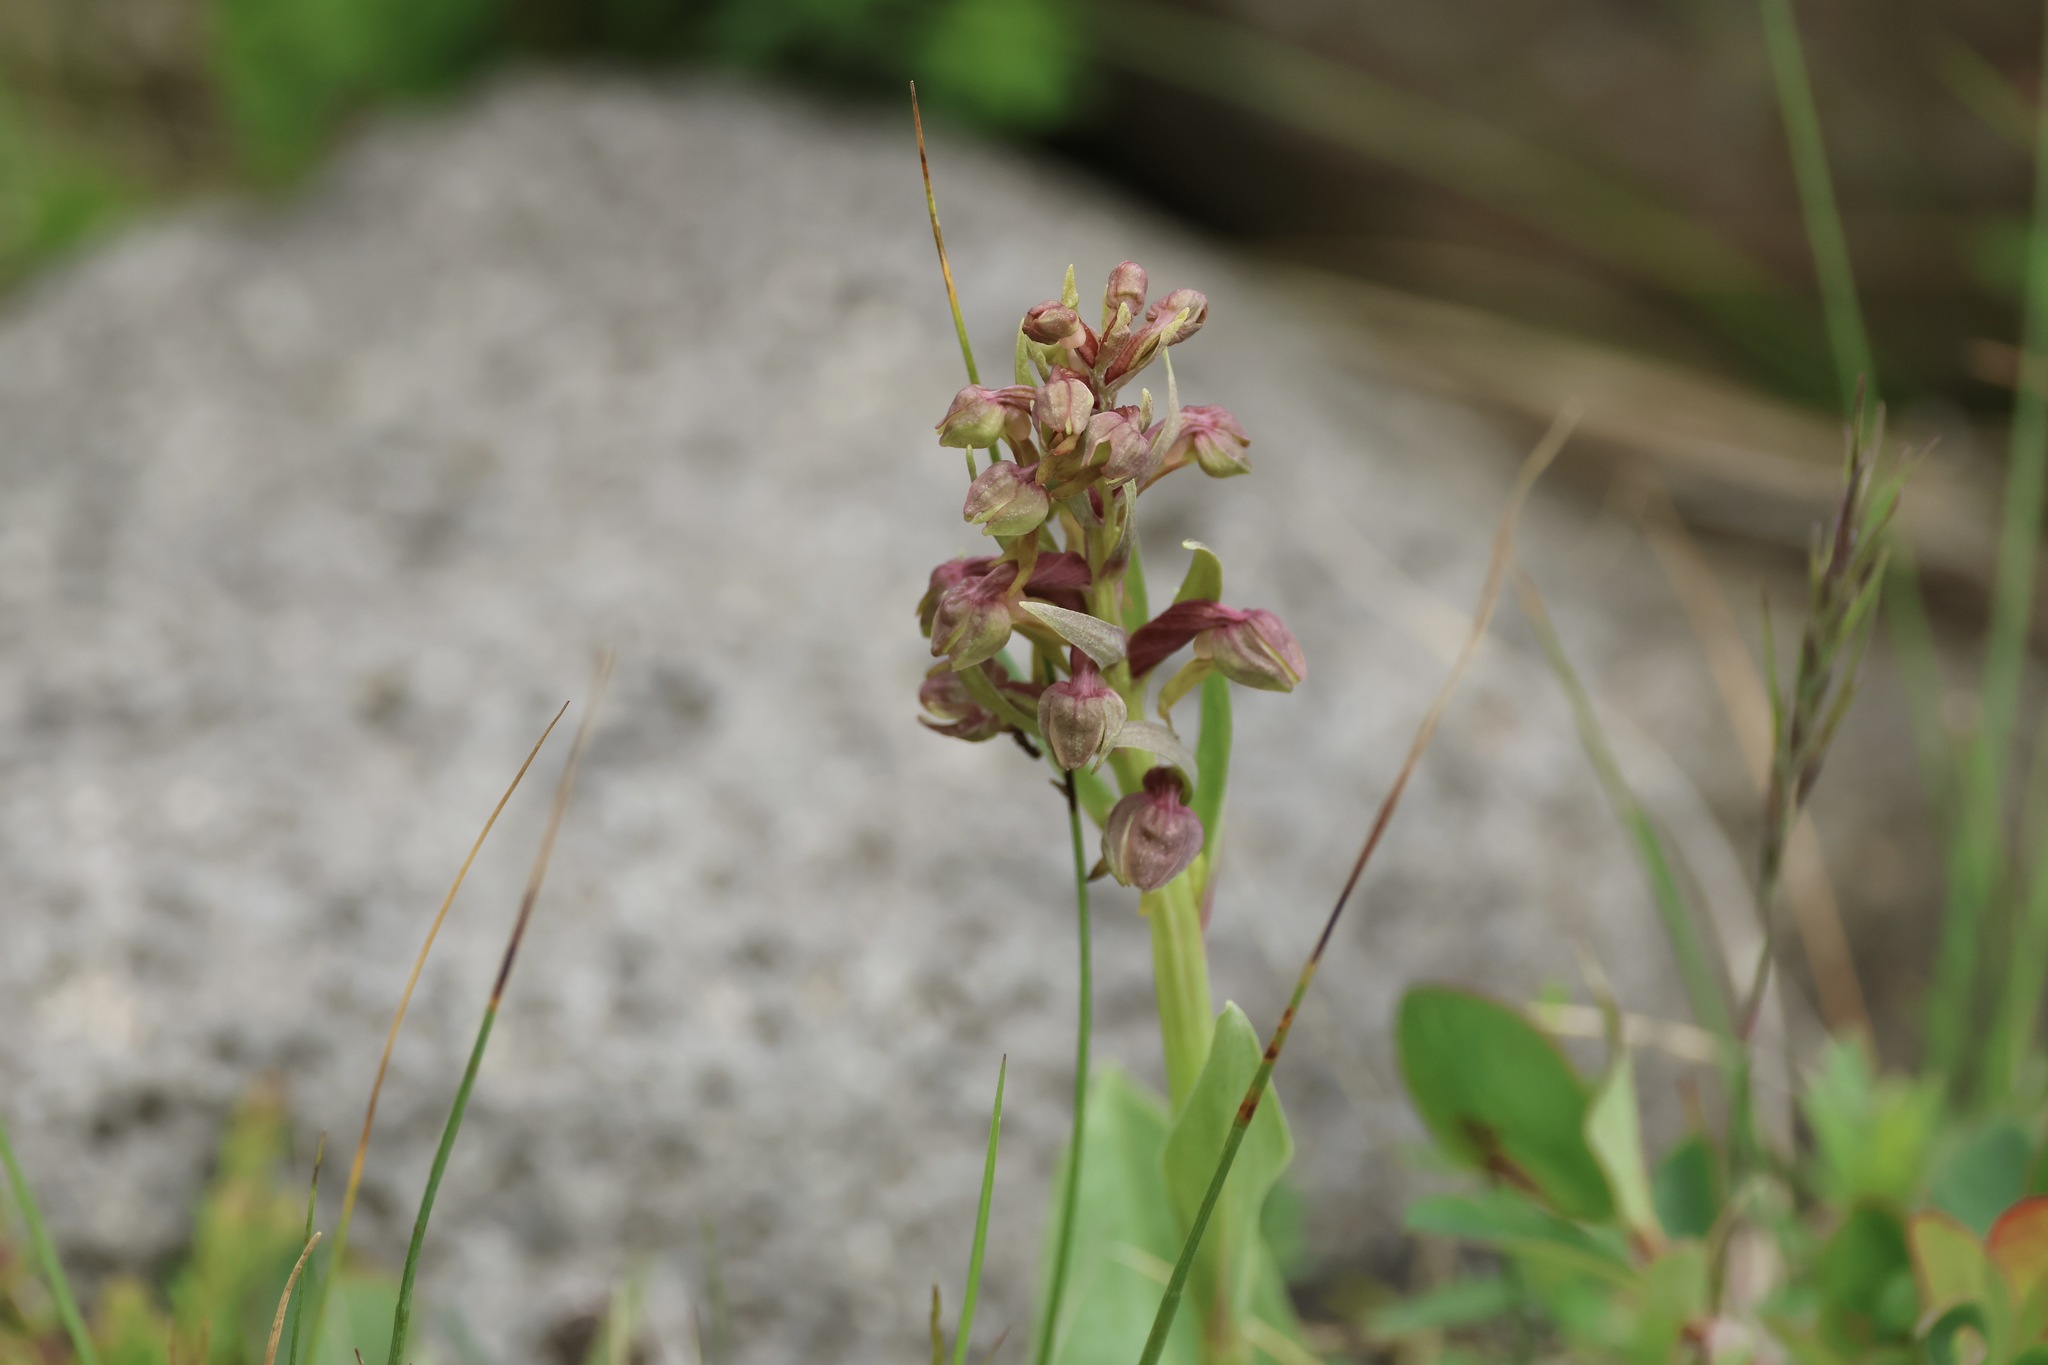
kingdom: Plantae
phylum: Tracheophyta
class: Liliopsida
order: Asparagales
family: Orchidaceae
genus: Dactylorhiza
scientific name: Dactylorhiza viridis
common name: Longbract frog orchid
